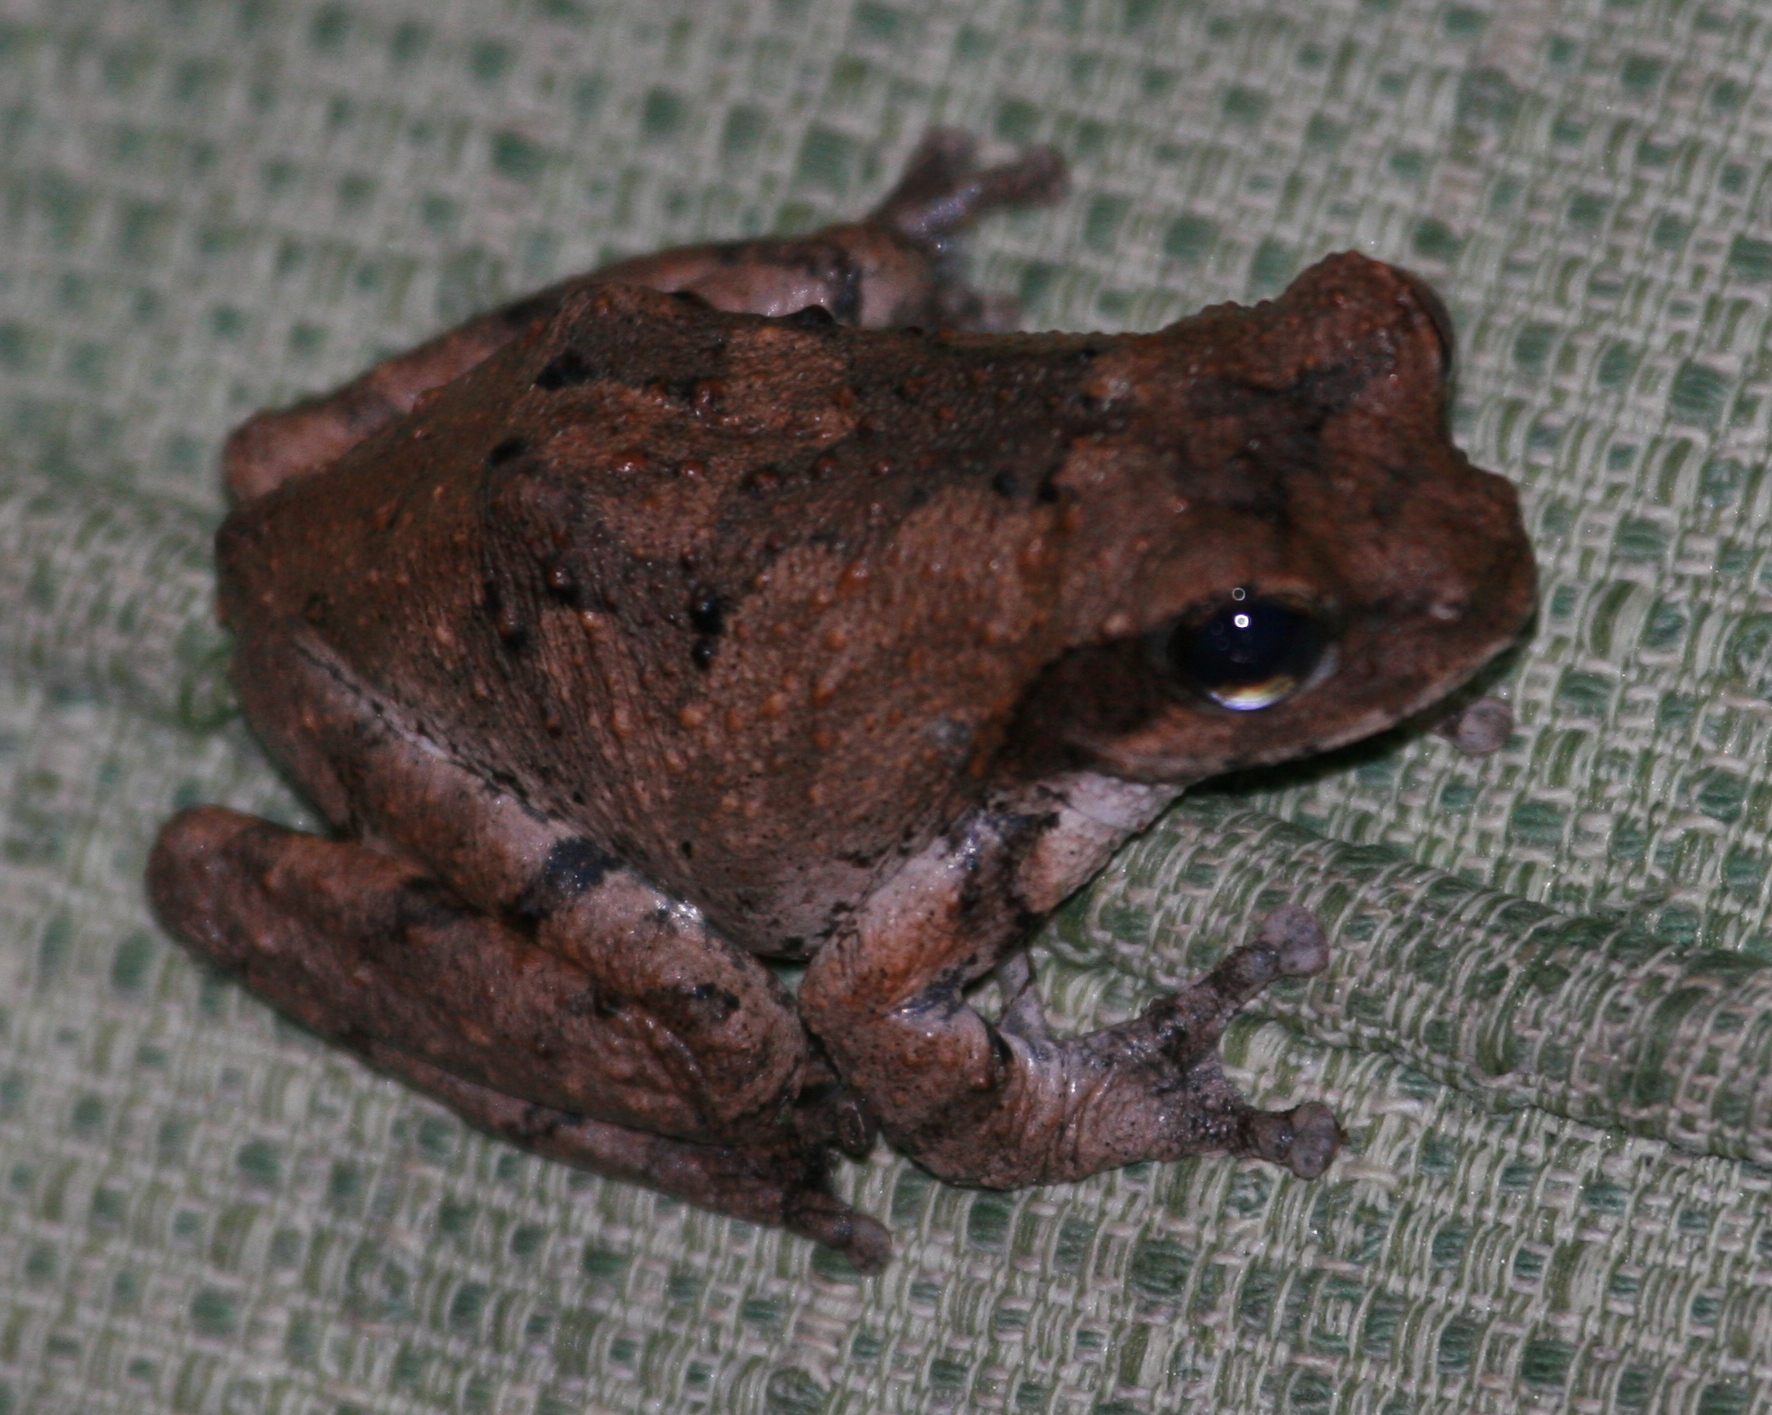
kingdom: Animalia
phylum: Chordata
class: Amphibia
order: Anura
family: Rhacophoridae
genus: Chiromantis
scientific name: Chiromantis xerampelina
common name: African gray treefrog
